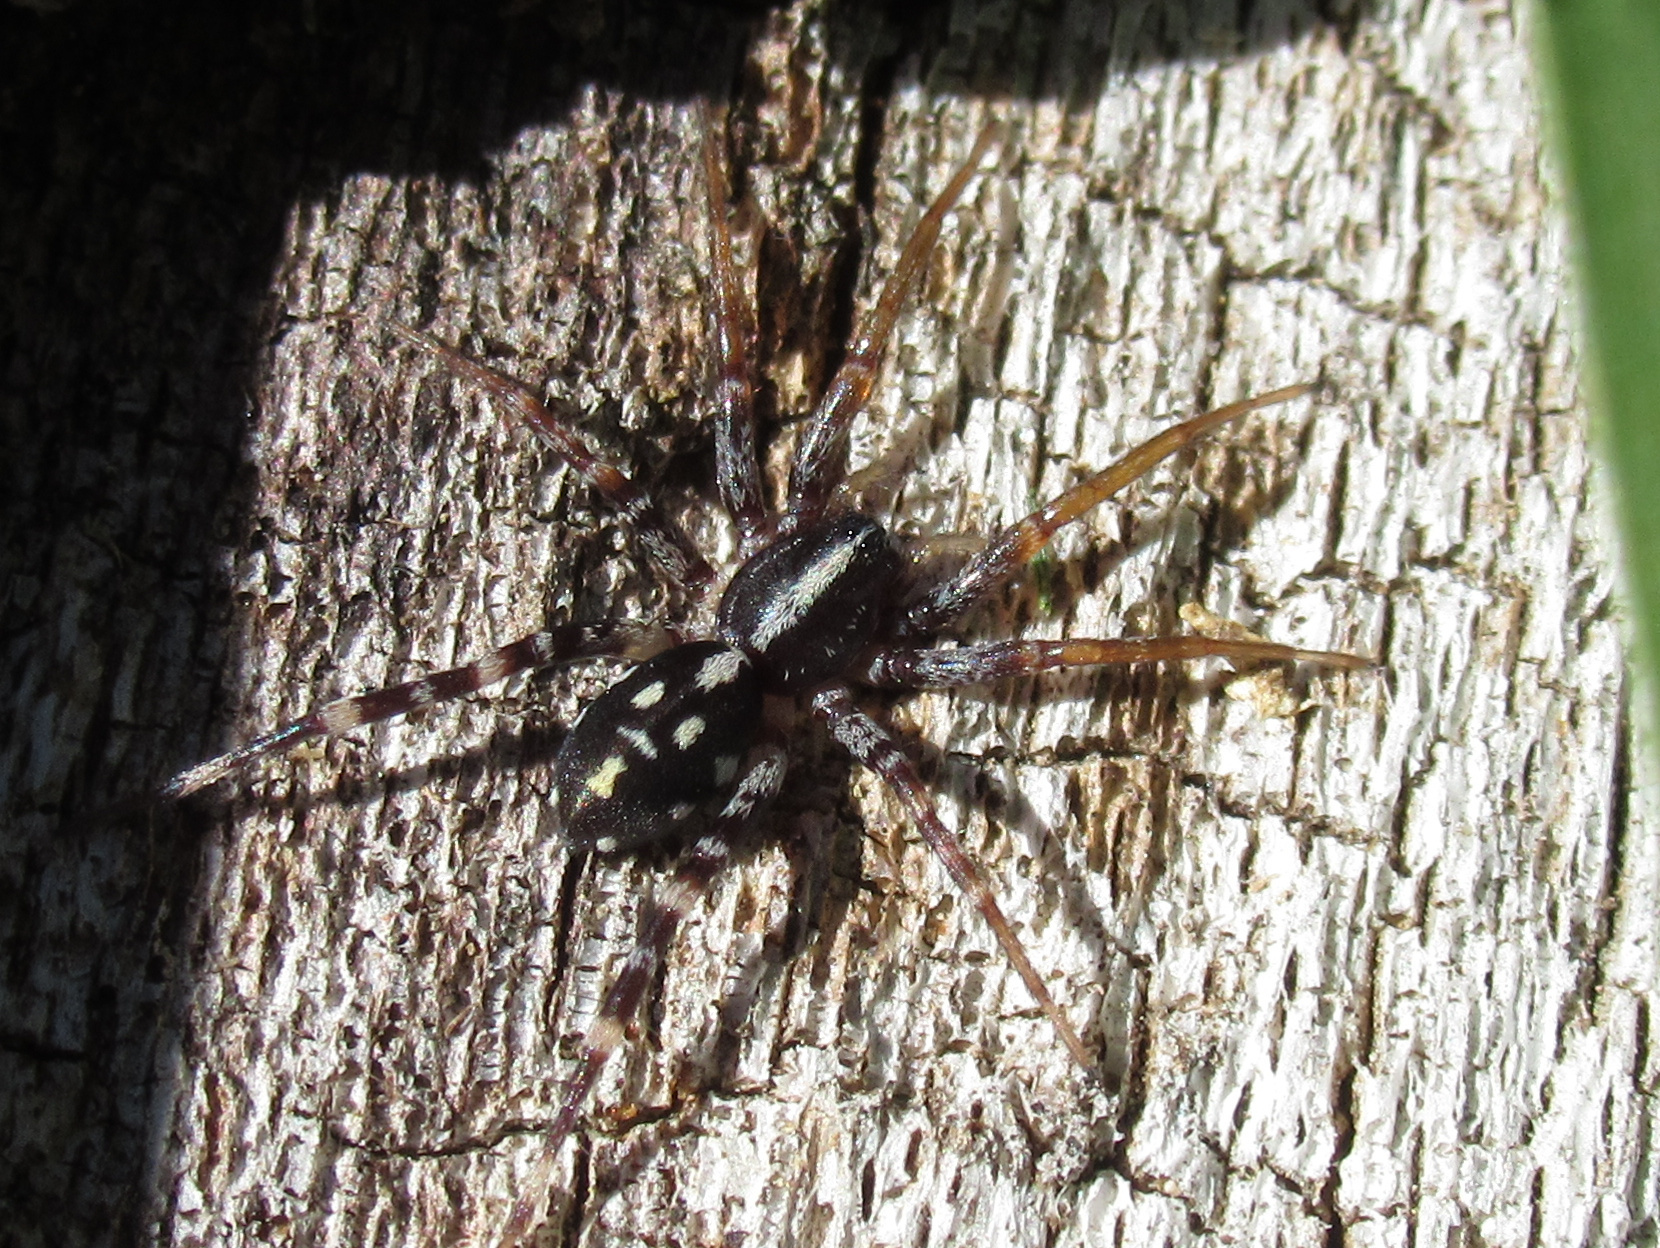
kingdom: Animalia
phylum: Arthropoda
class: Arachnida
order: Araneae
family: Corinnidae
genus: Nyssus
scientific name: Nyssus coloripes
